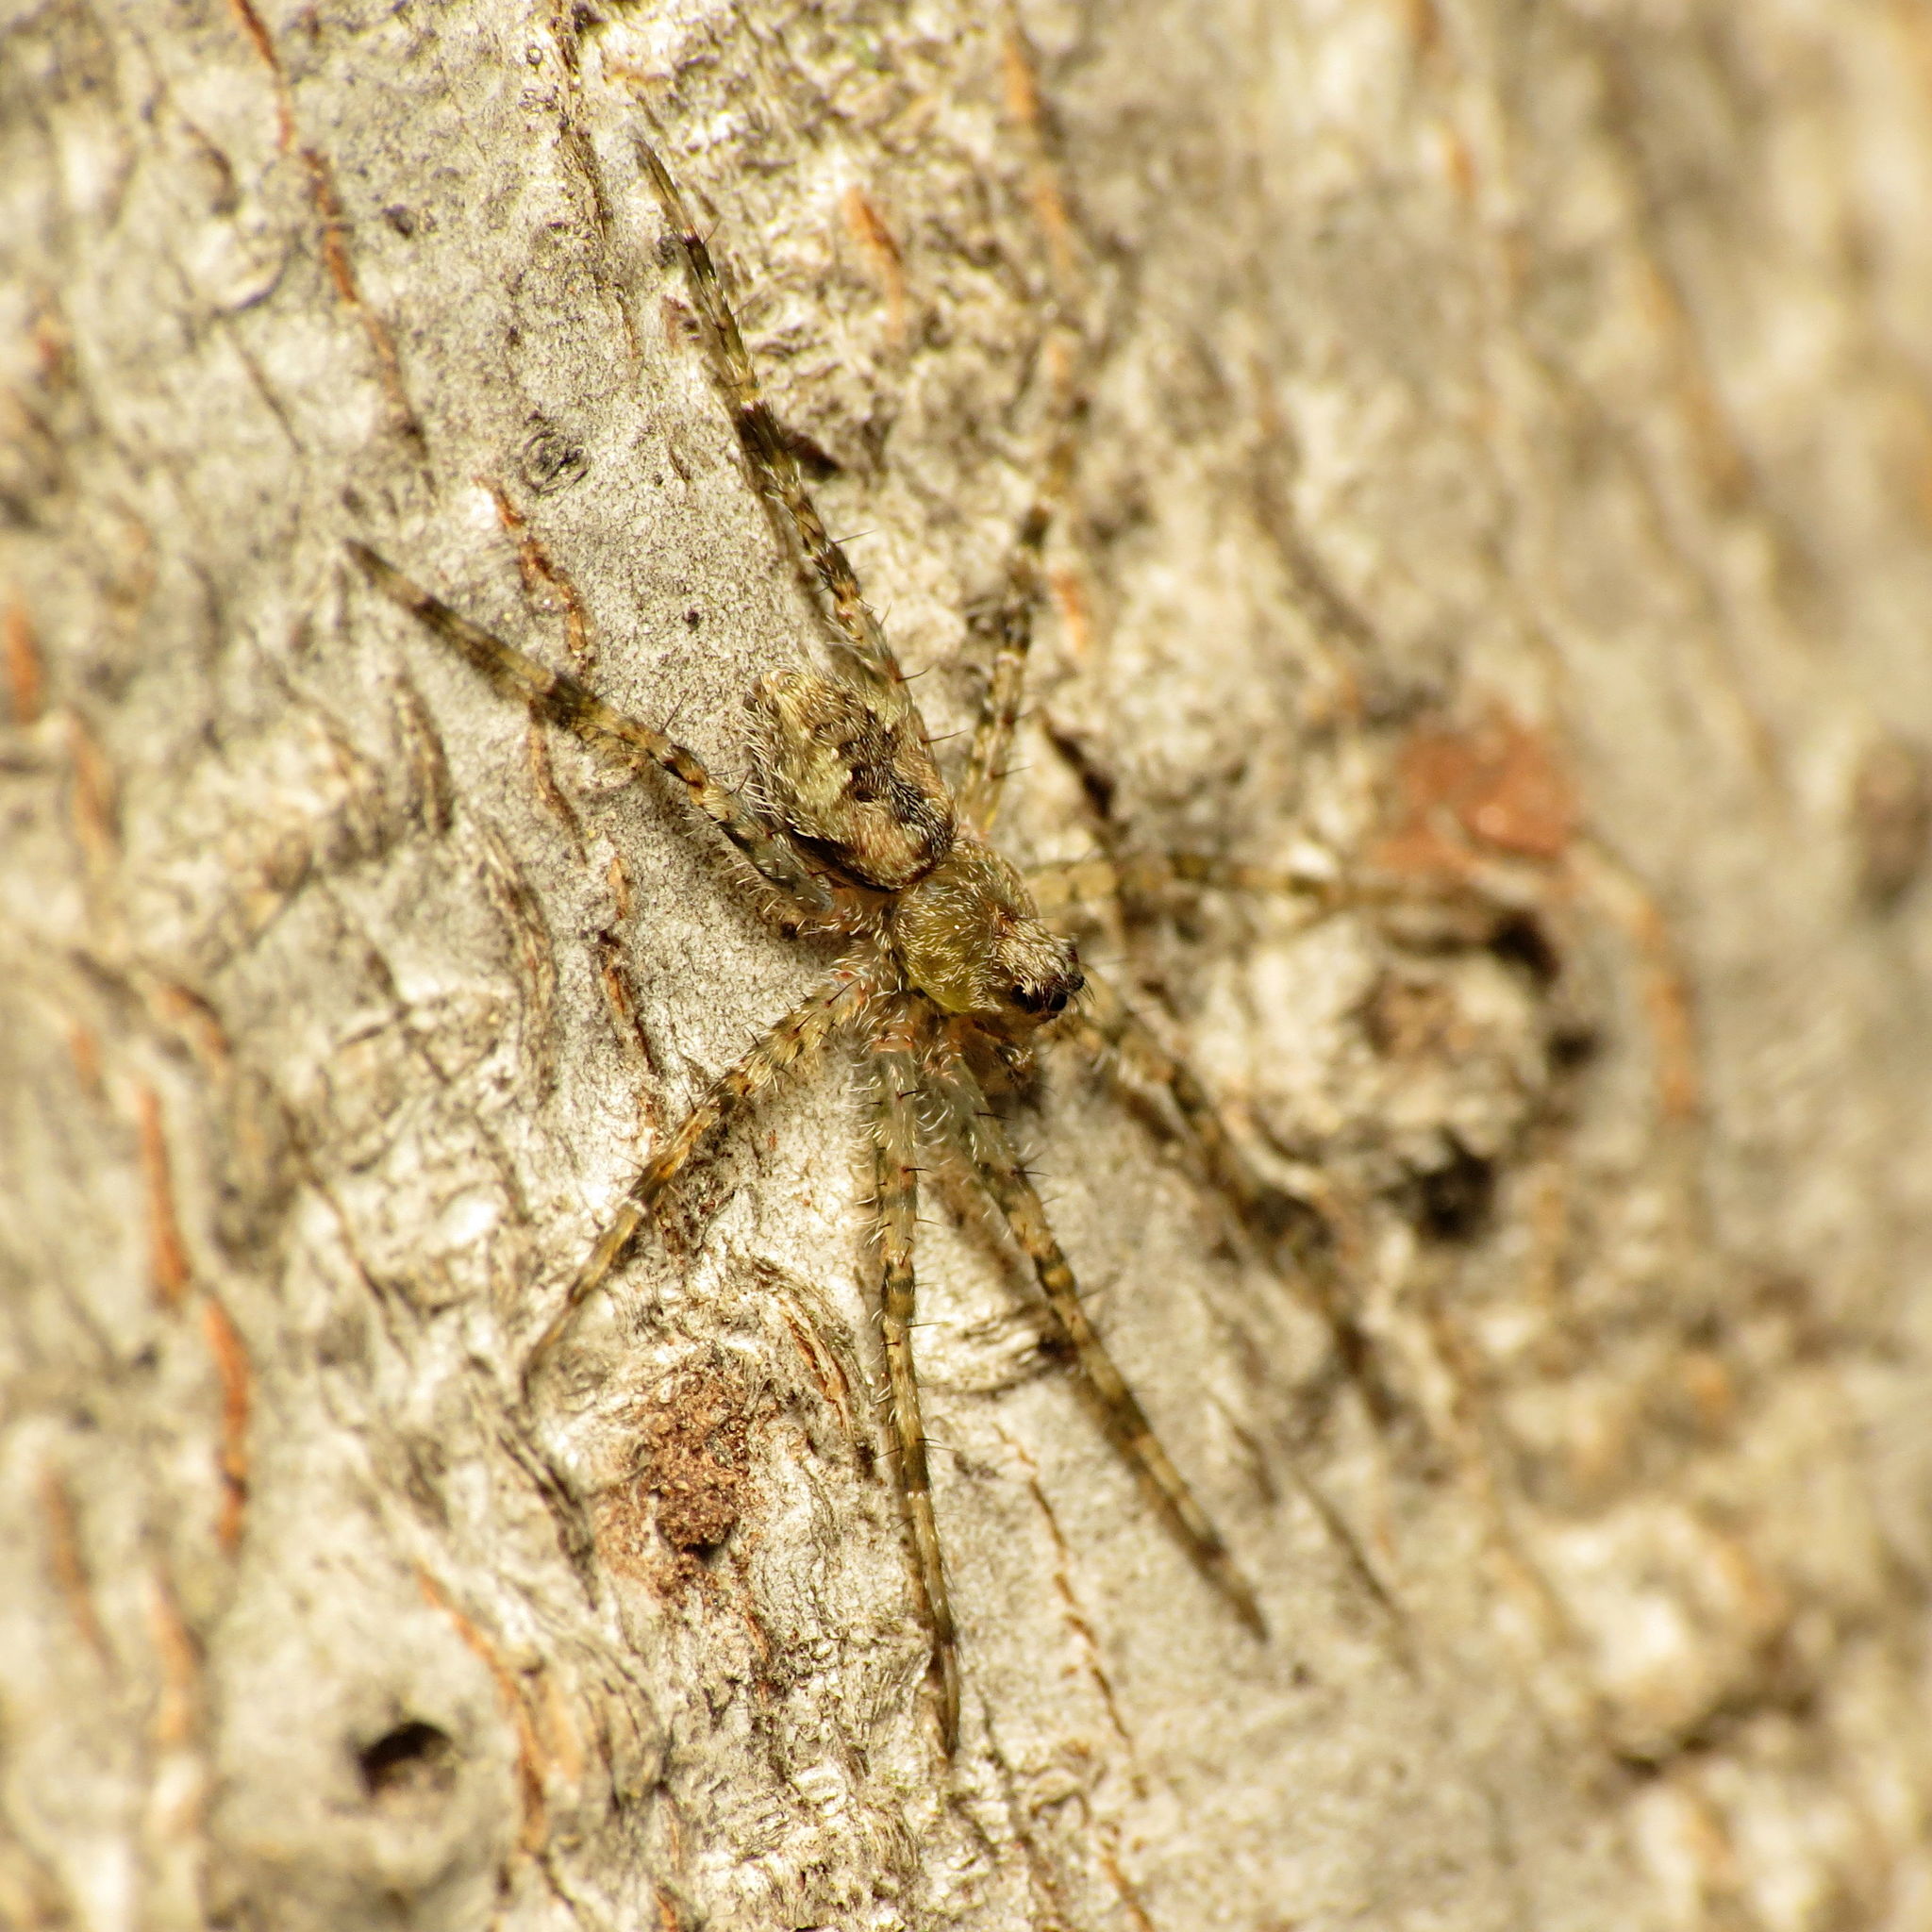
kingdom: Animalia
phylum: Arthropoda
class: Arachnida
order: Araneae
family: Pisauridae
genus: Dolomedes
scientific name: Dolomedes albineus
